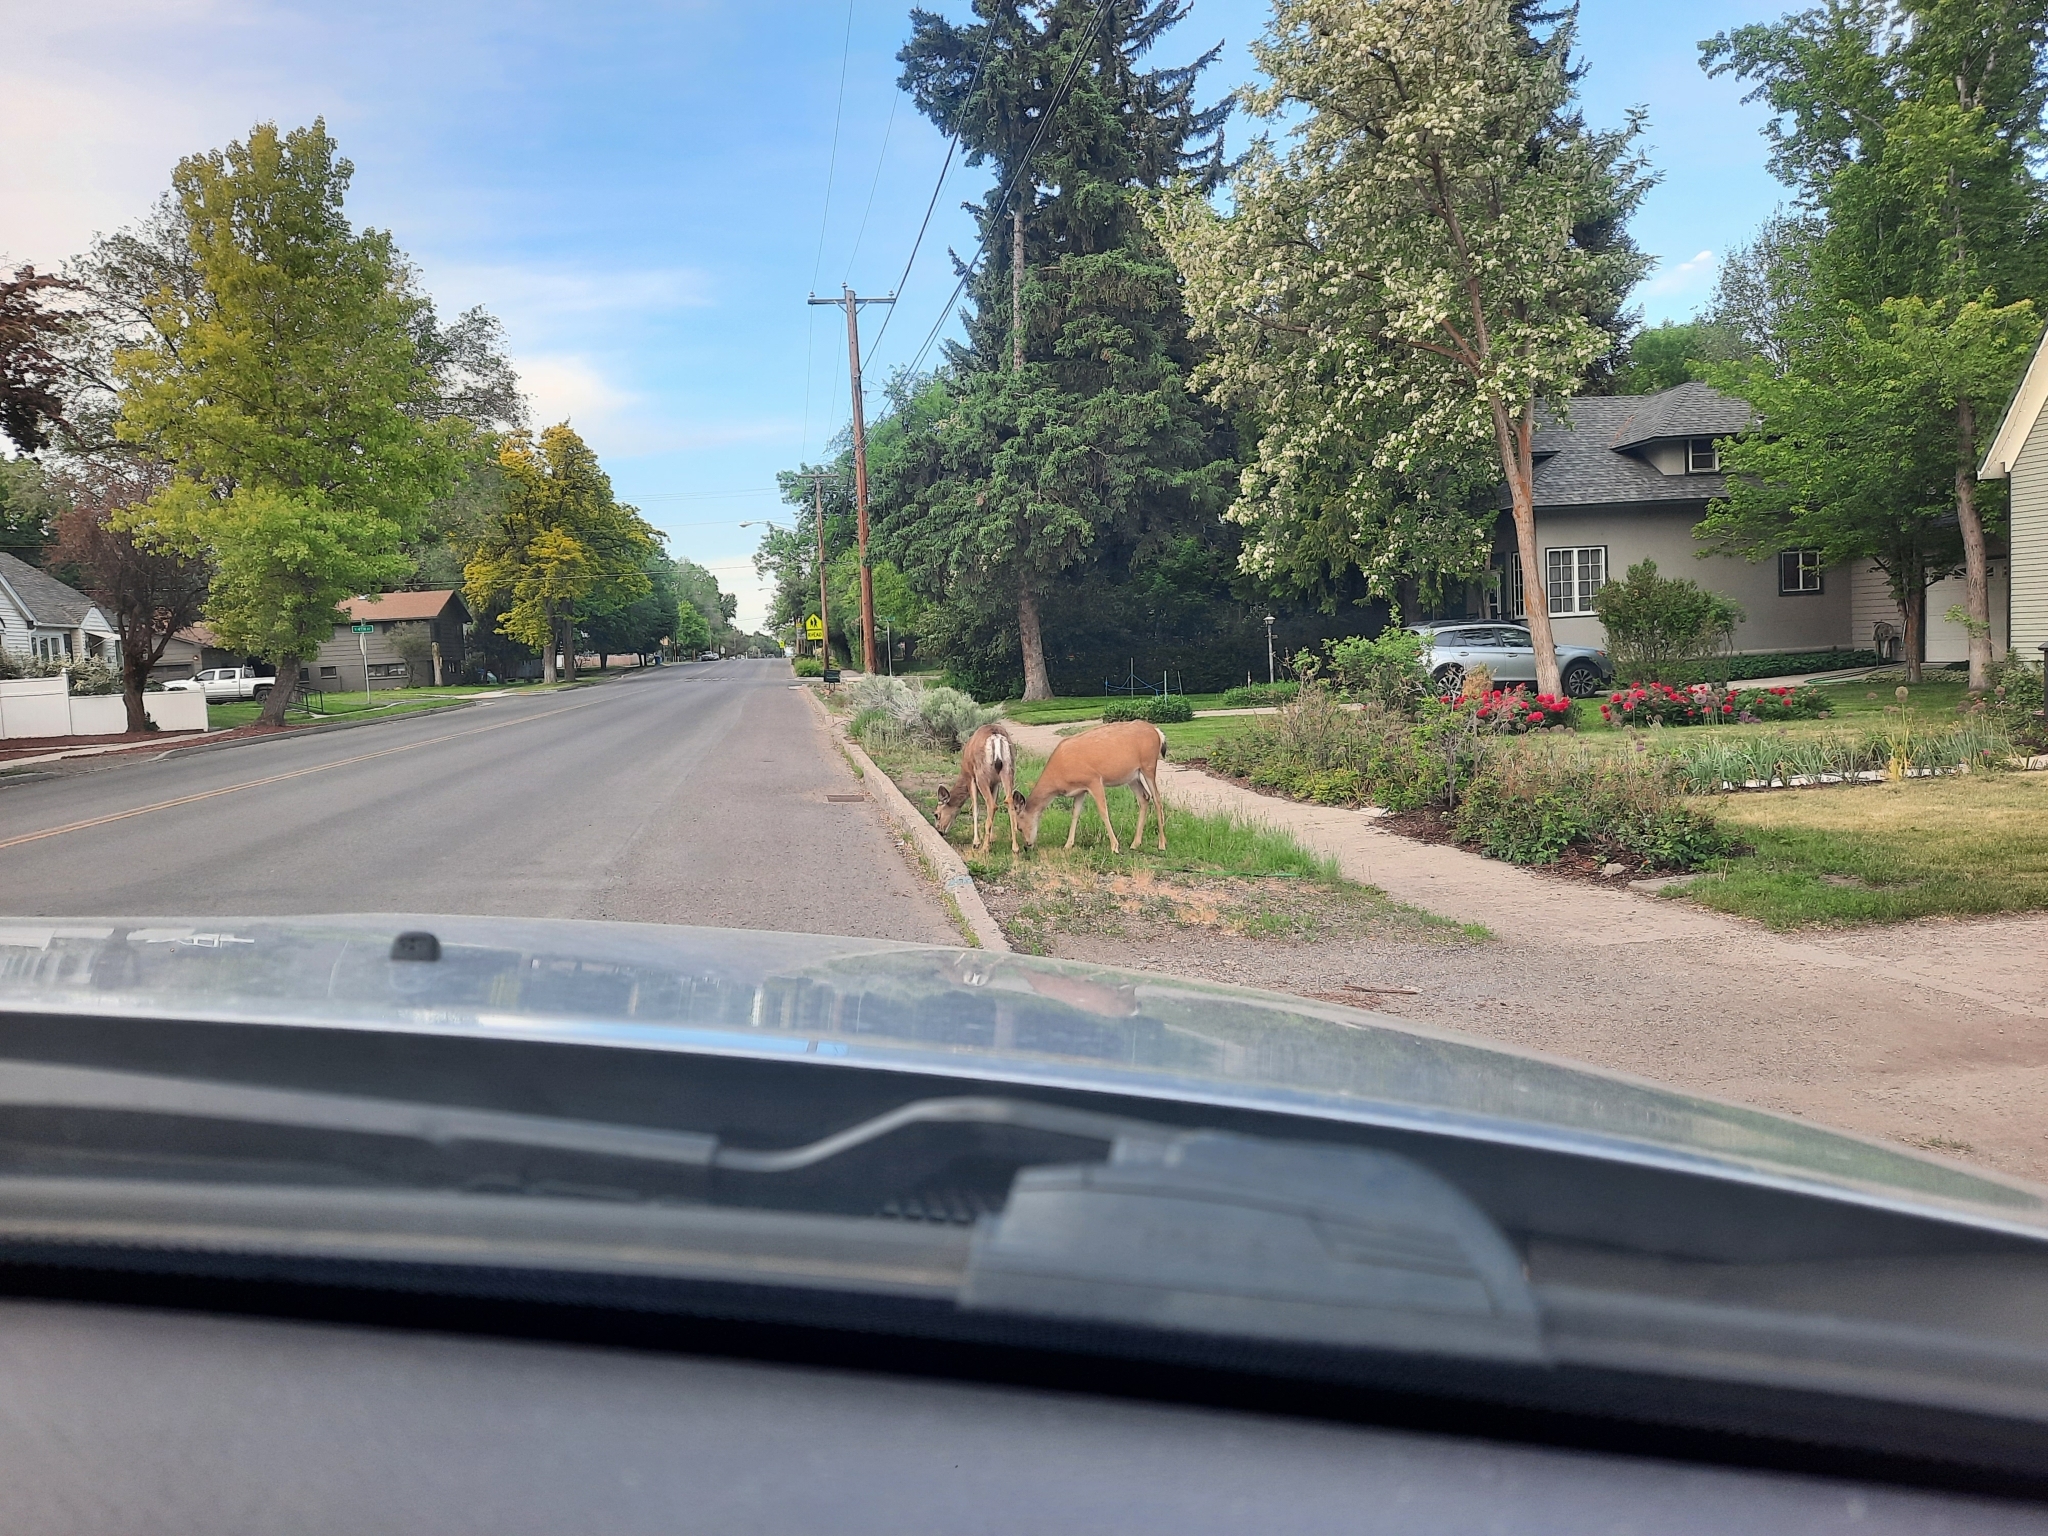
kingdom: Animalia
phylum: Chordata
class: Mammalia
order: Artiodactyla
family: Cervidae
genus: Odocoileus
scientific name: Odocoileus hemionus
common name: Mule deer
